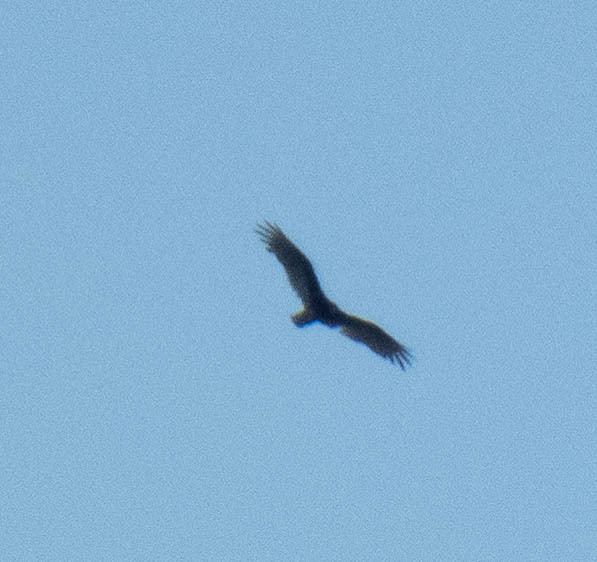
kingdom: Animalia
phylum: Chordata
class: Aves
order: Accipitriformes
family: Cathartidae
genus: Cathartes
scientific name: Cathartes aura
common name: Turkey vulture
